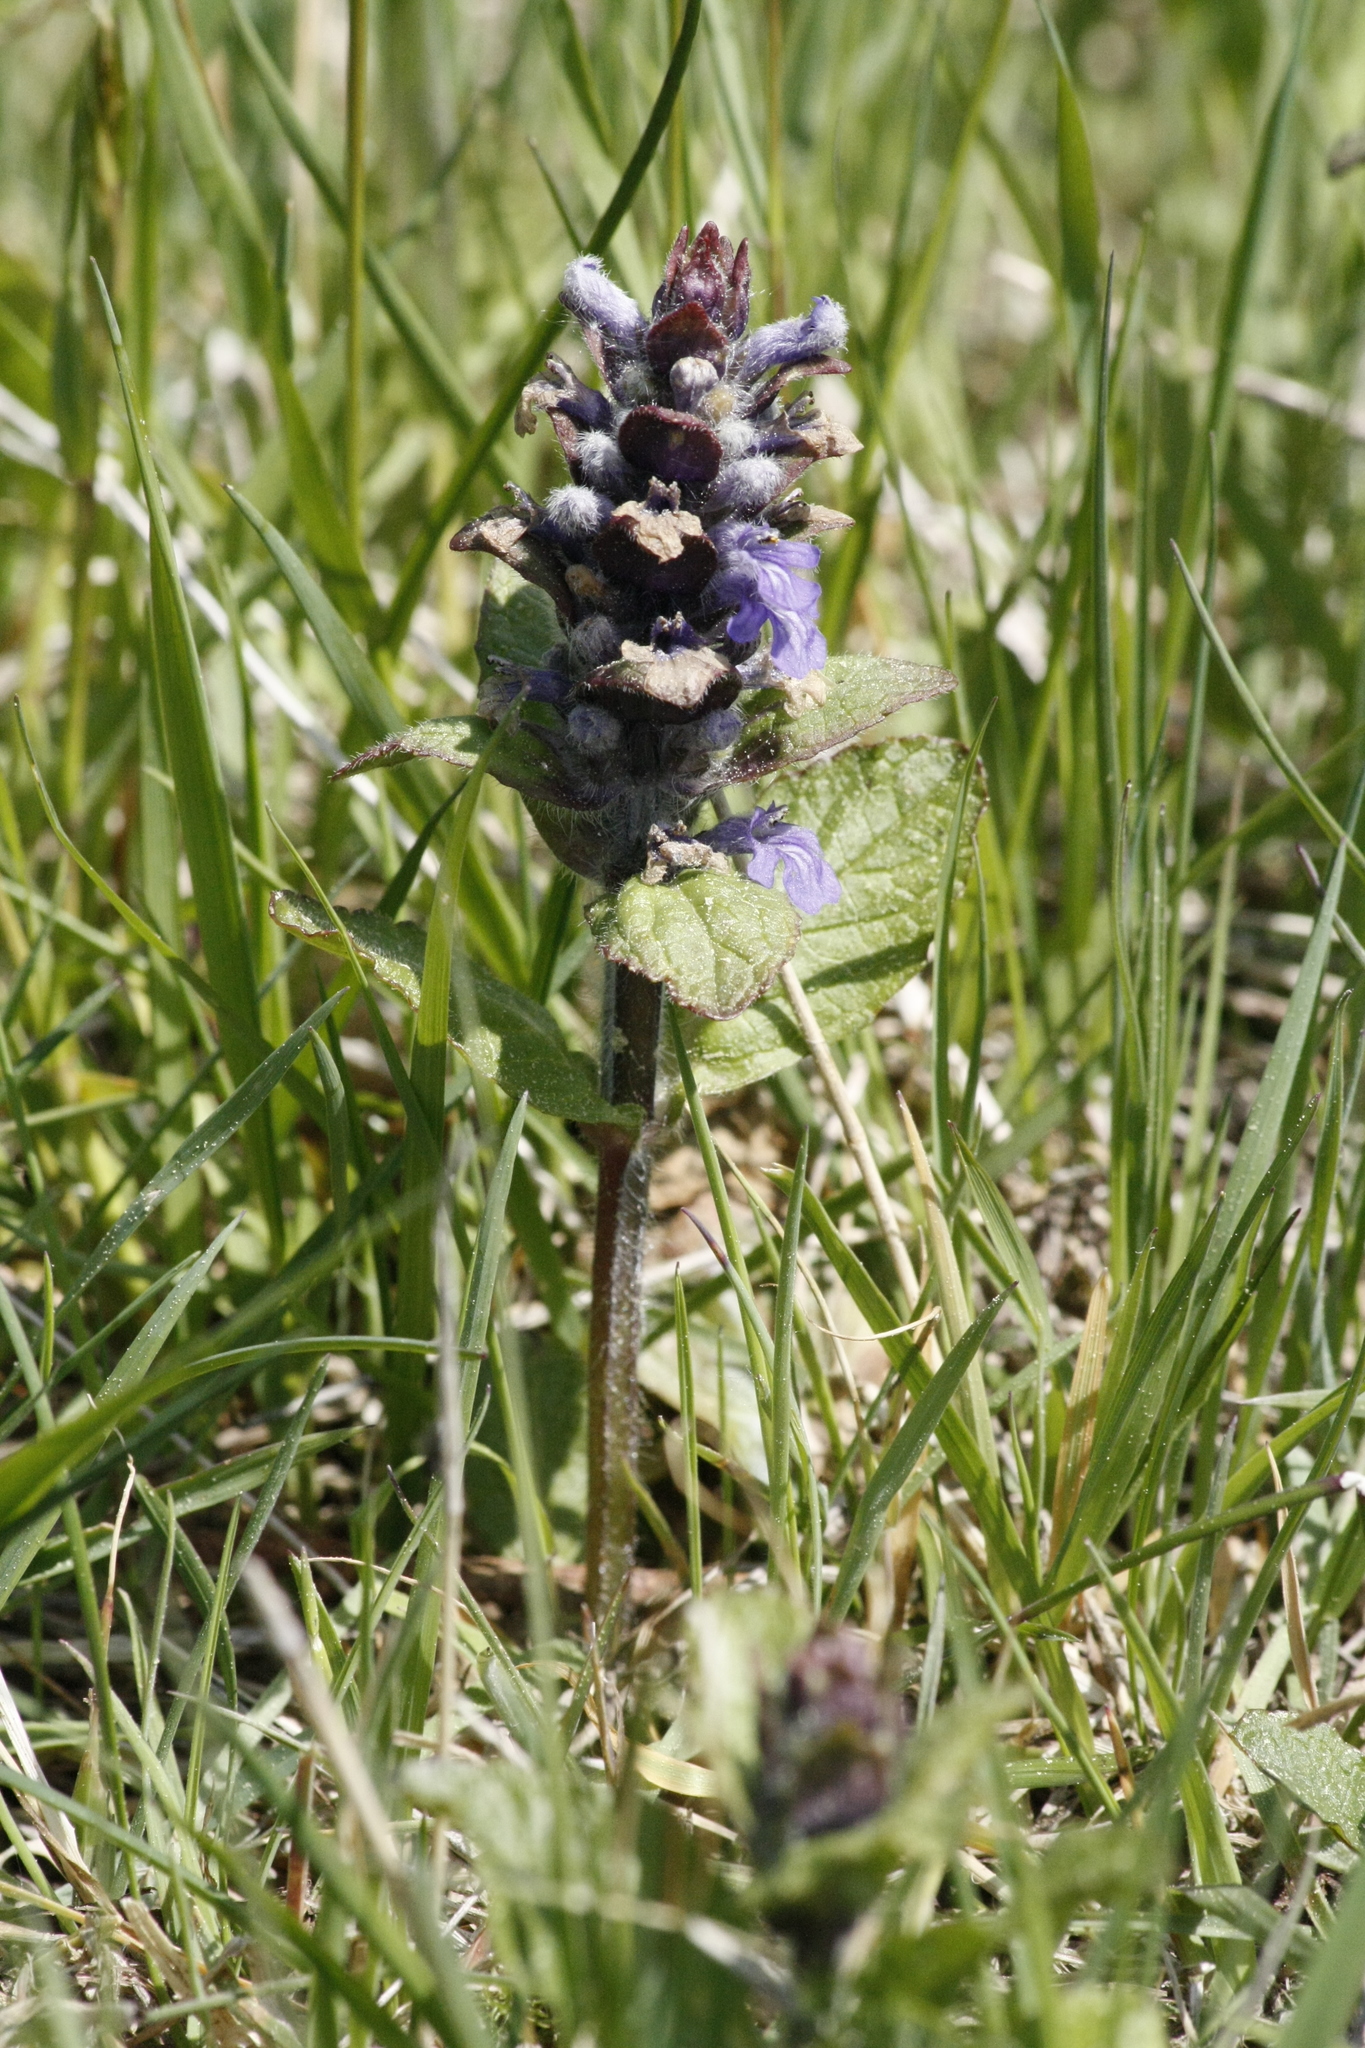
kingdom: Plantae
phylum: Tracheophyta
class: Magnoliopsida
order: Lamiales
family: Lamiaceae
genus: Ajuga
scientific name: Ajuga reptans
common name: Bugle
